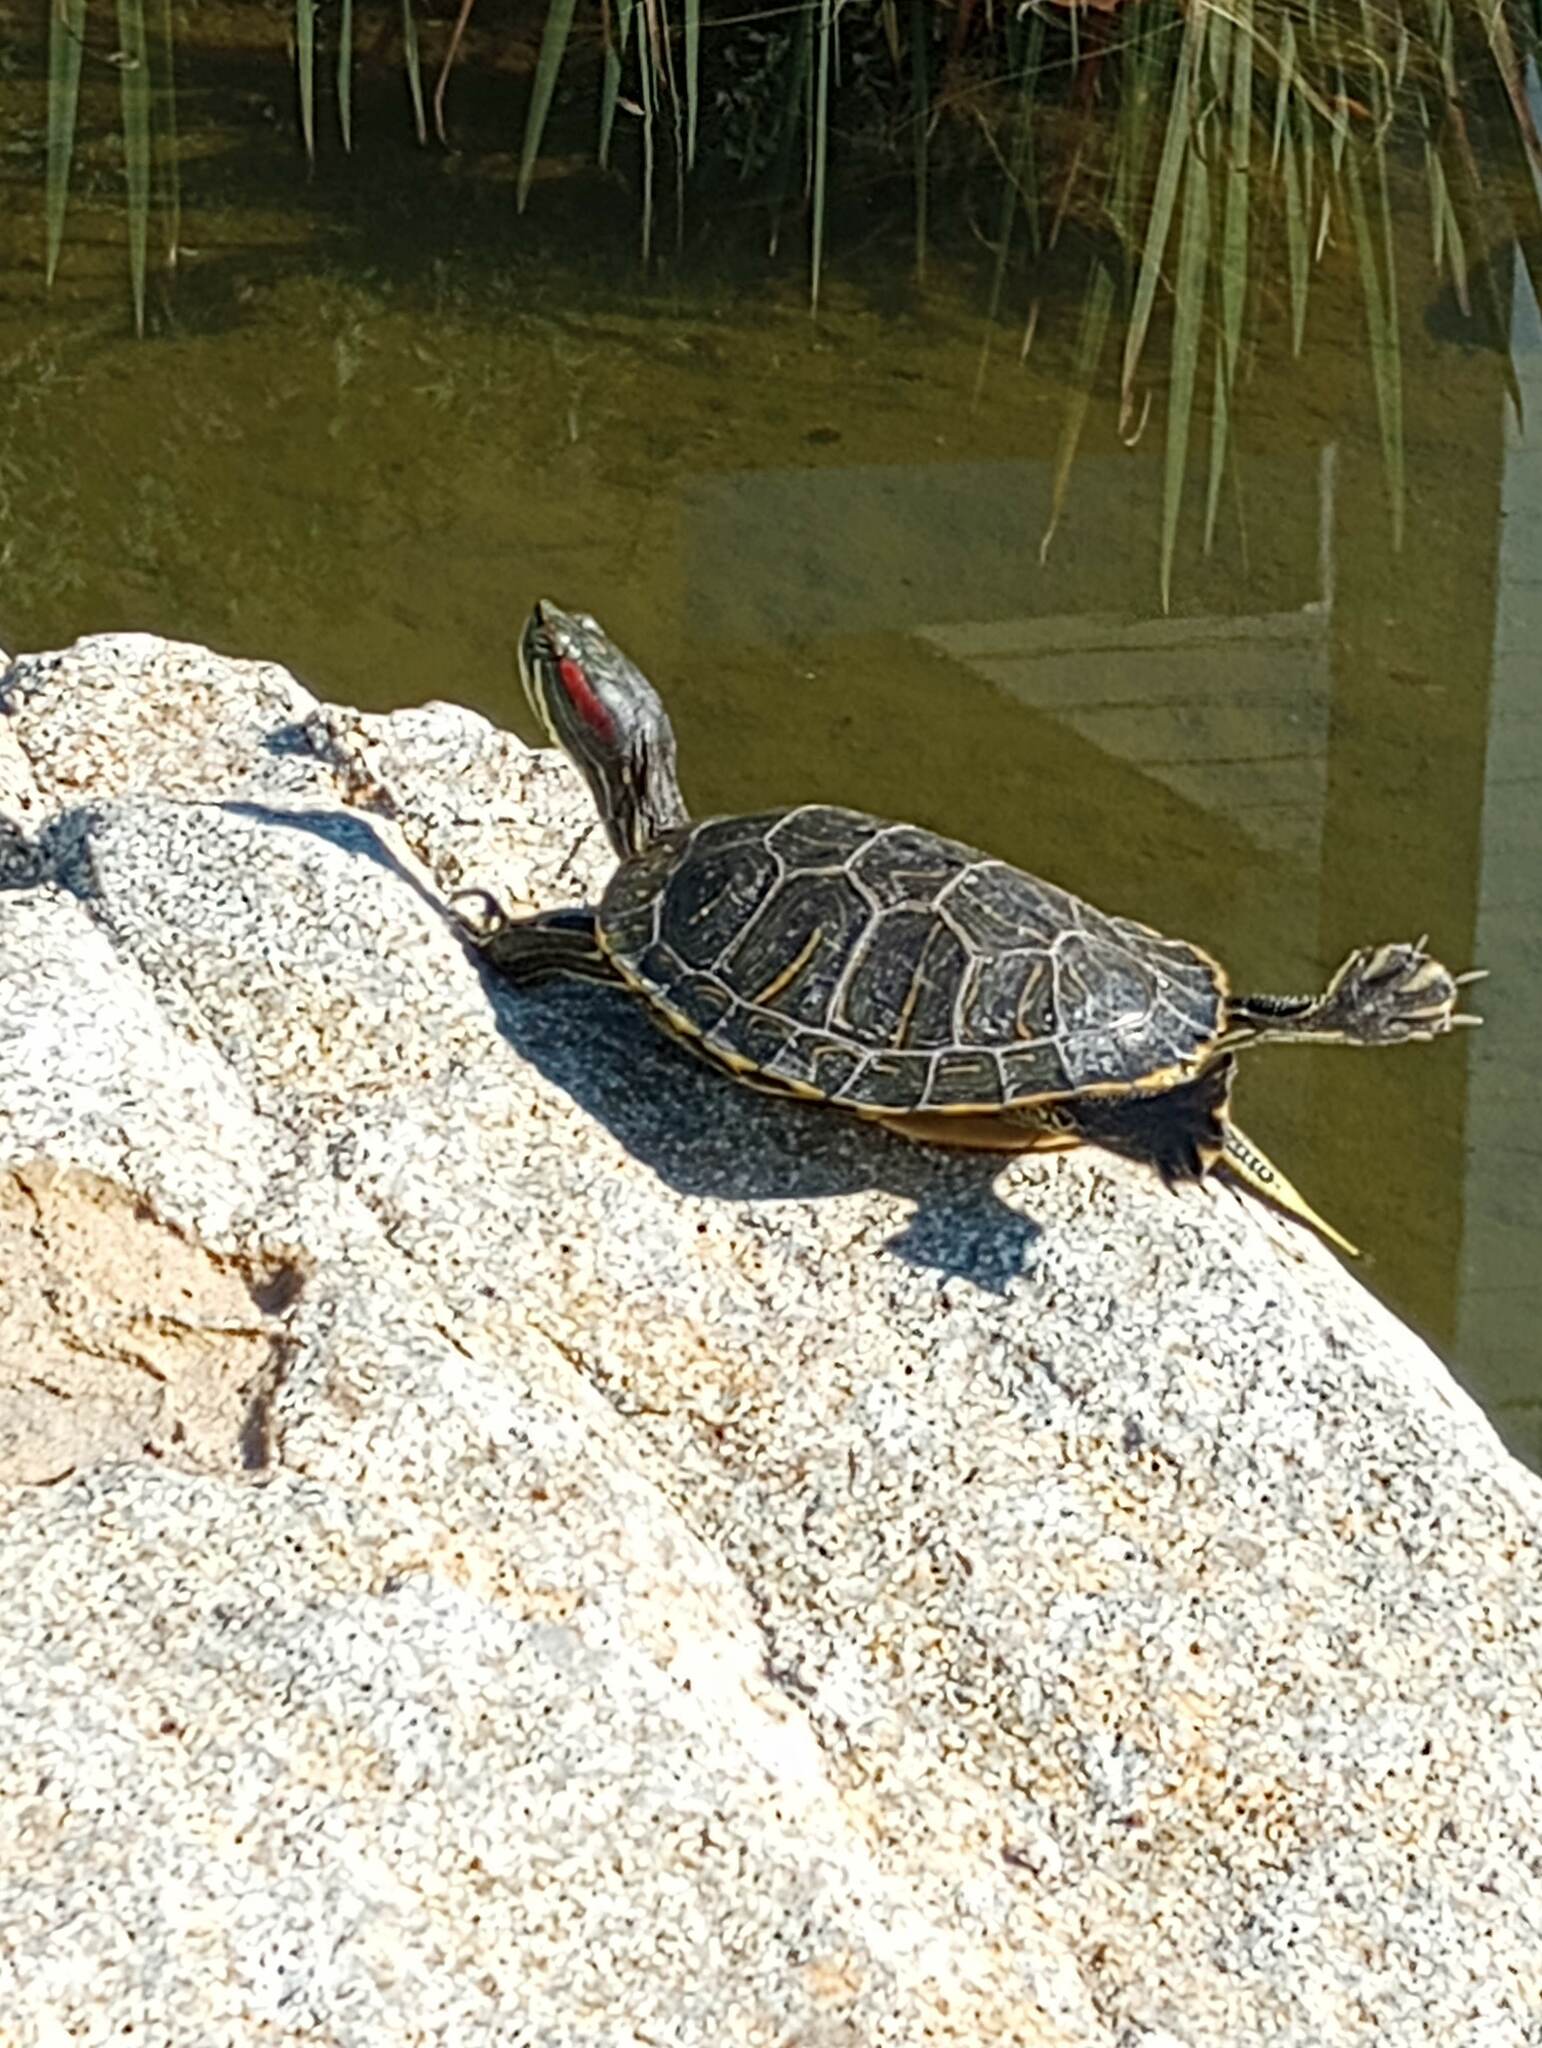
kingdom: Animalia
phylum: Chordata
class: Testudines
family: Emydidae
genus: Trachemys
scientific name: Trachemys scripta
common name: Slider
